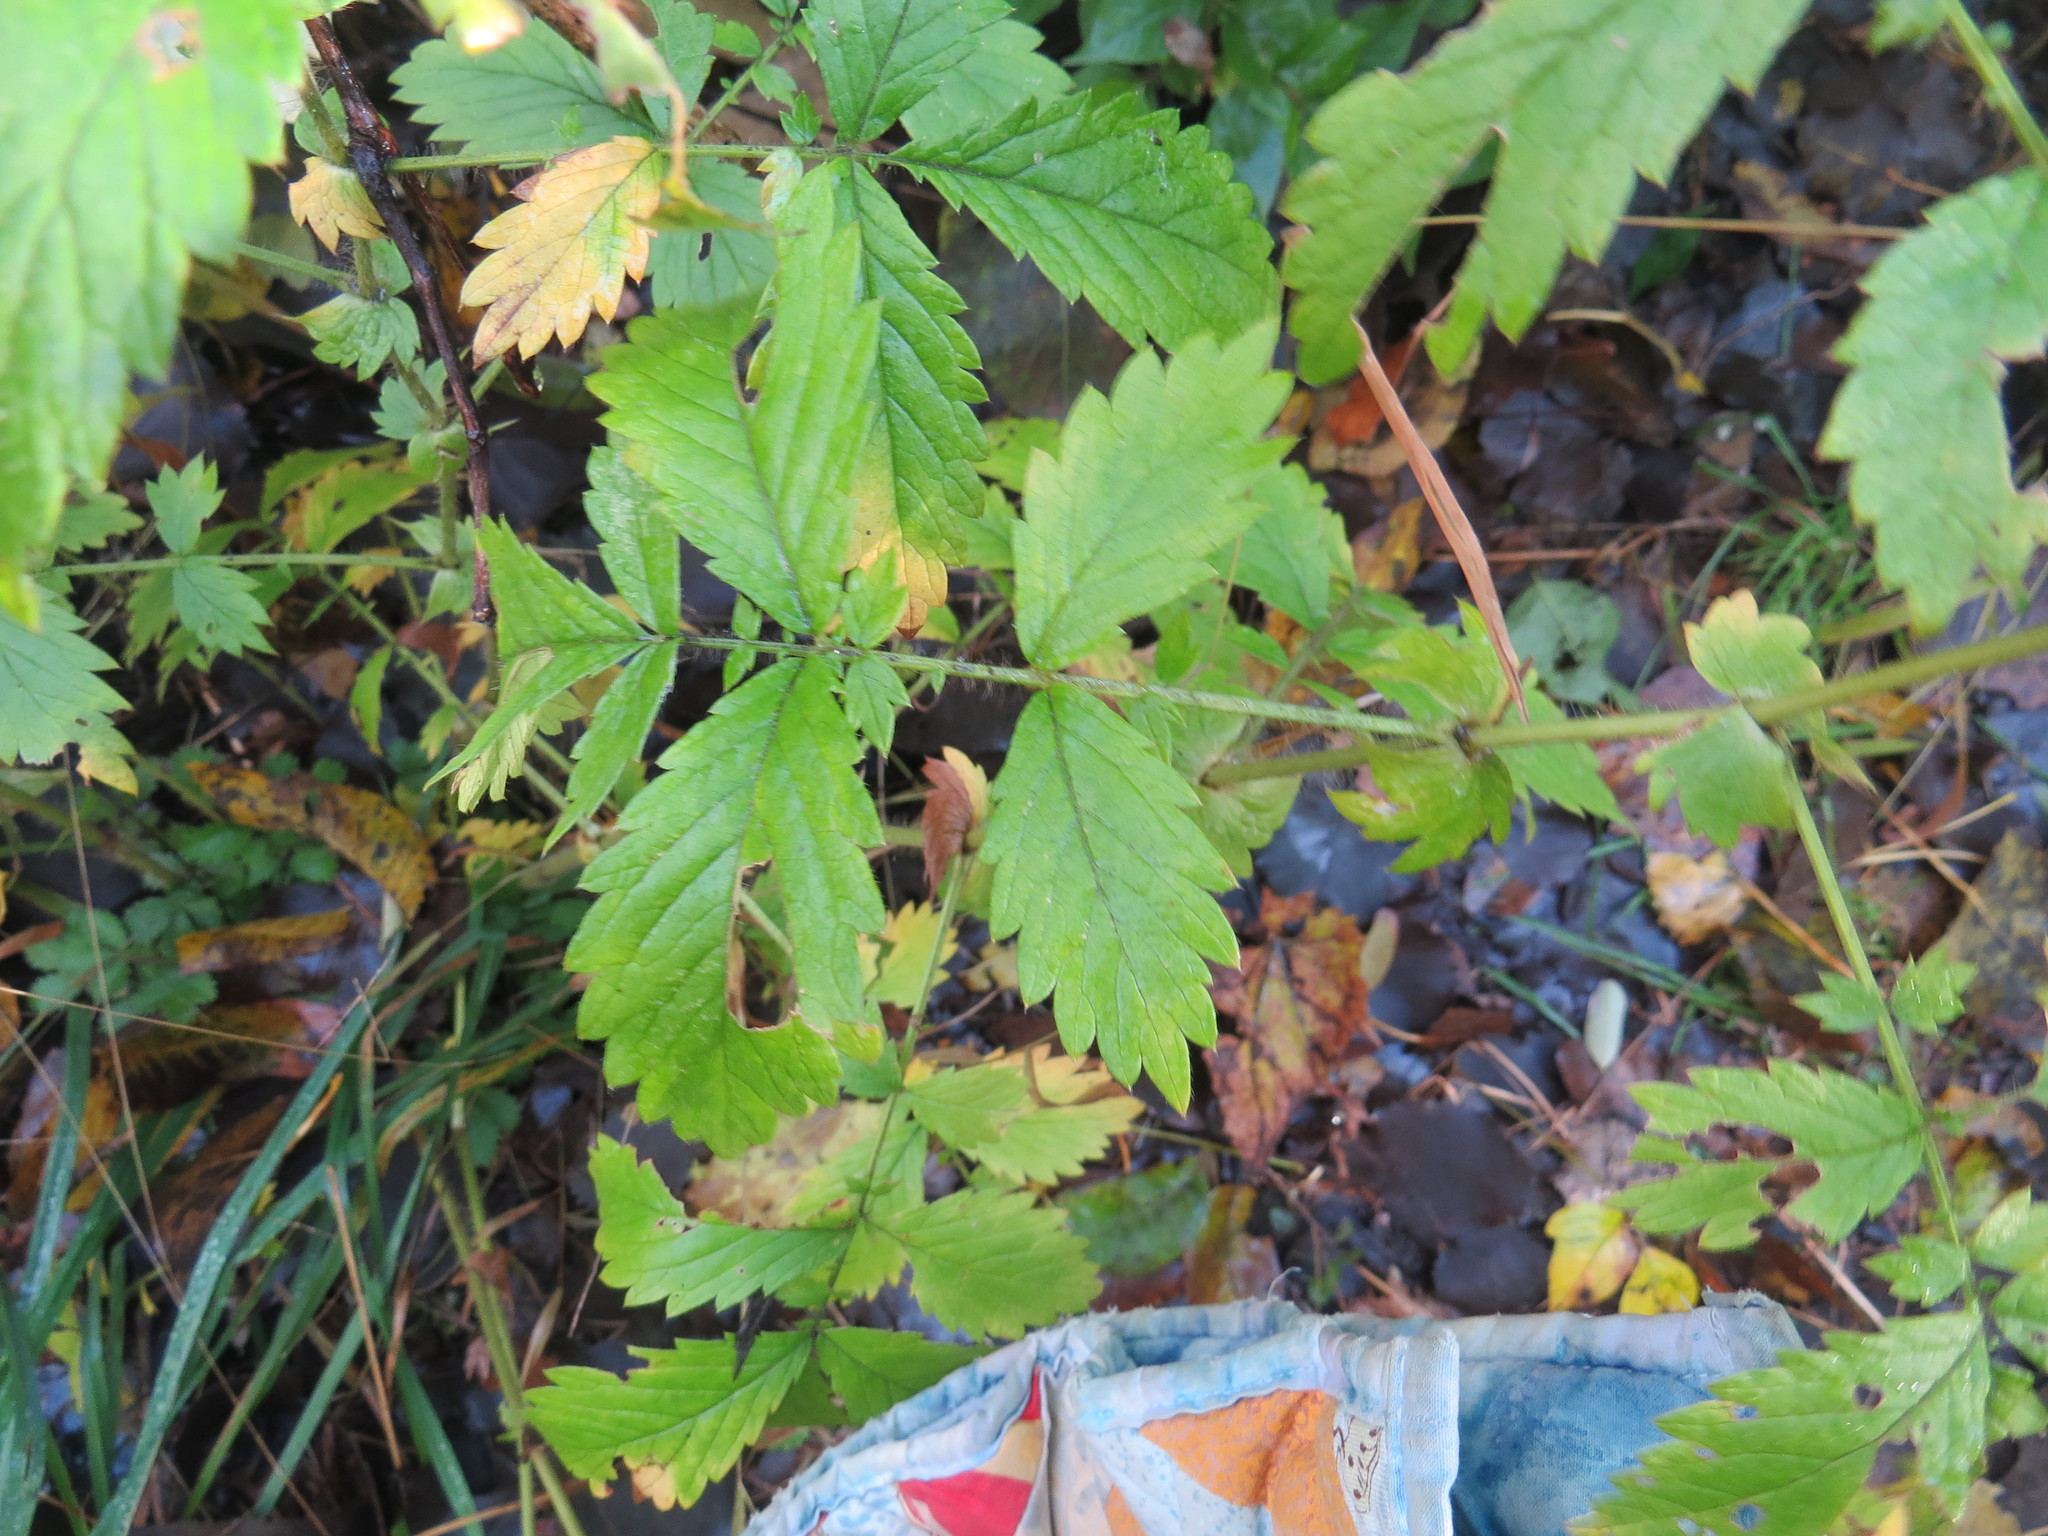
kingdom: Plantae
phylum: Tracheophyta
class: Magnoliopsida
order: Rosales
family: Rosaceae
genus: Agrimonia
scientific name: Agrimonia gryposepala
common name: Common agrimony
